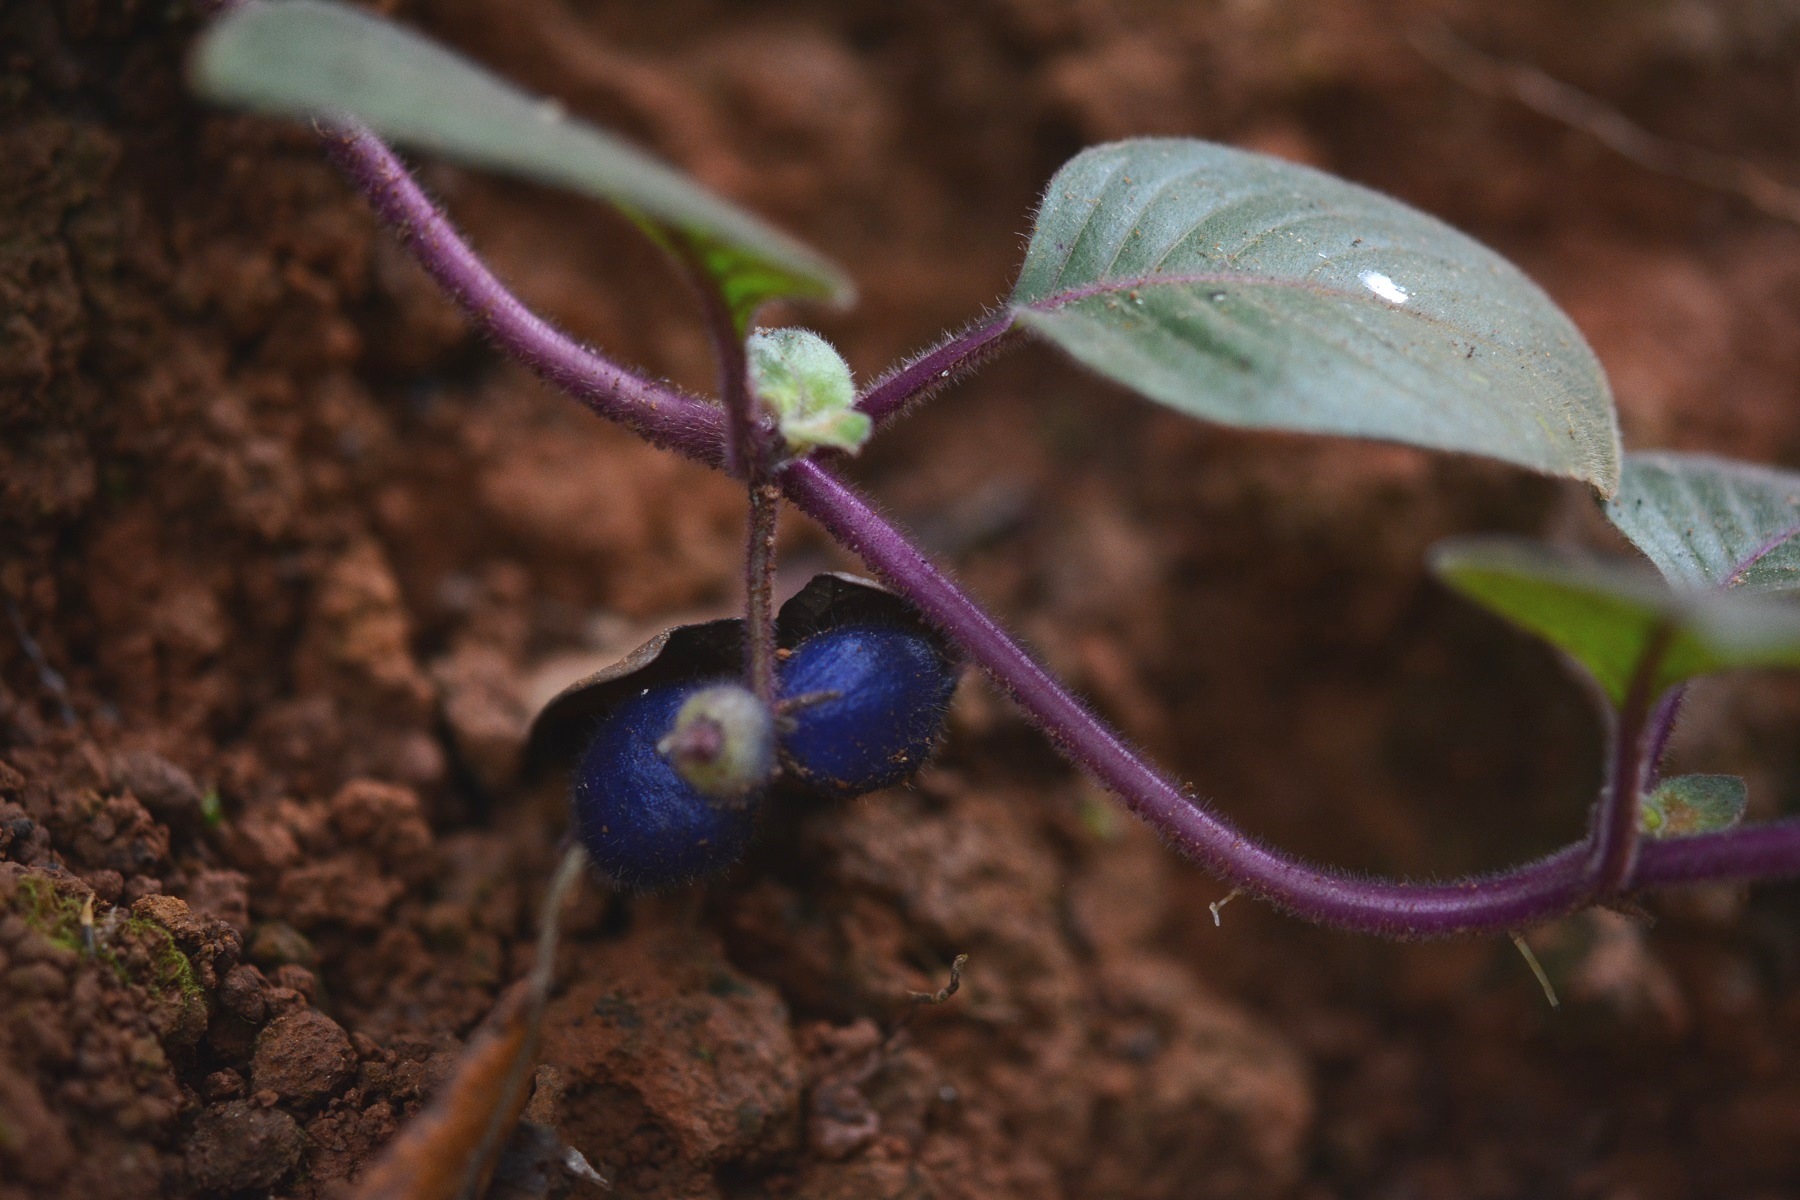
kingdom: Plantae
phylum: Tracheophyta
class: Magnoliopsida
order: Gentianales
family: Rubiaceae
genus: Coccocypselum
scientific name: Coccocypselum hirsutum
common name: Yerba de guava
